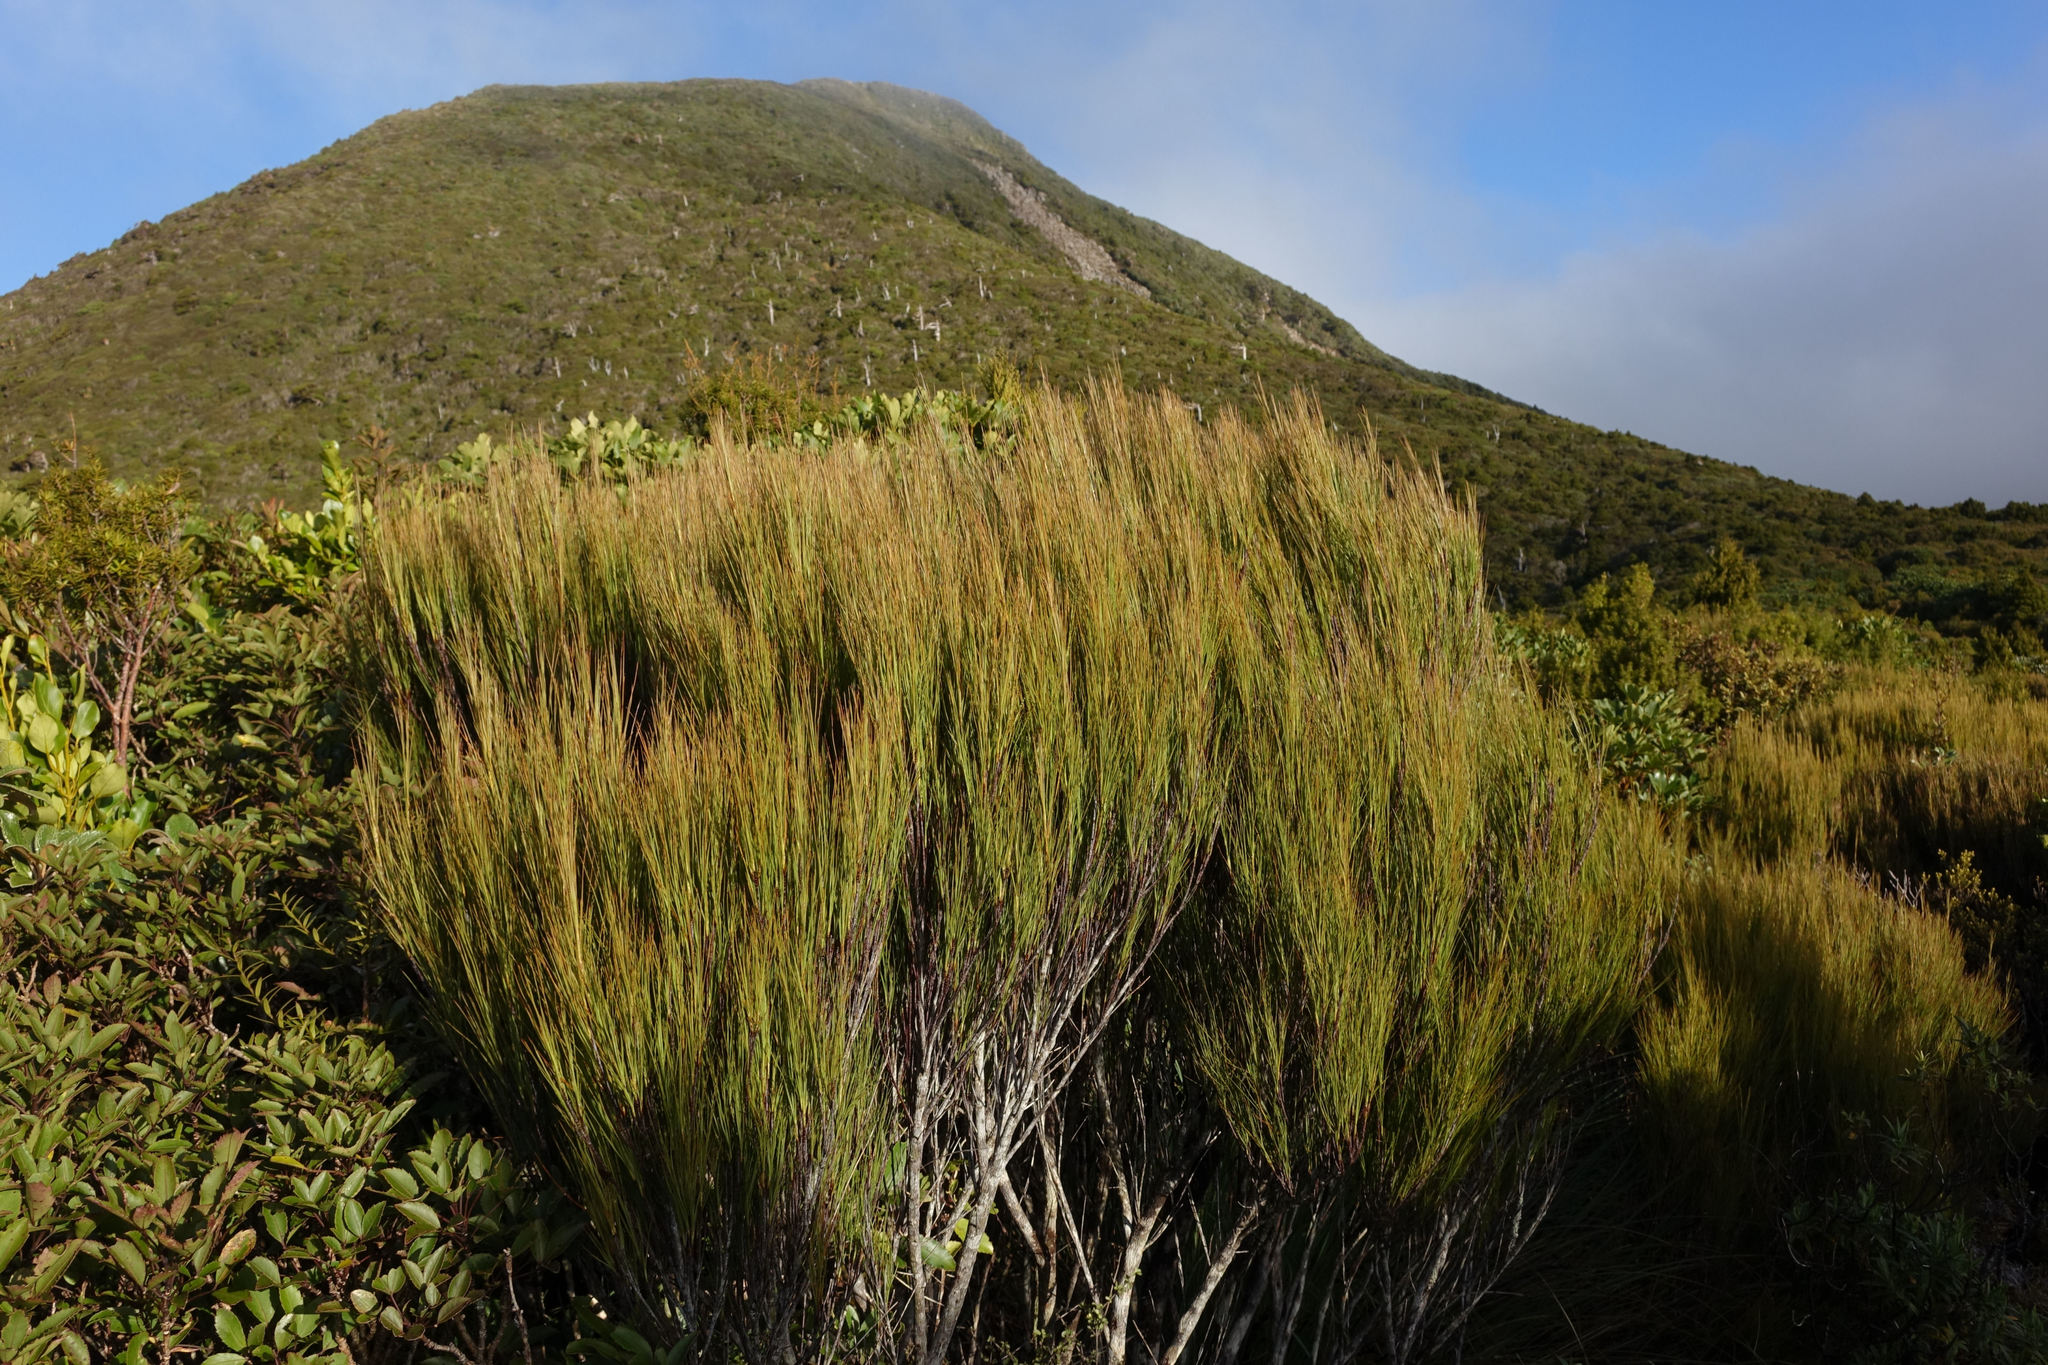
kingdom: Plantae
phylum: Tracheophyta
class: Magnoliopsida
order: Ericales
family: Ericaceae
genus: Dracophyllum
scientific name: Dracophyllum filifolium
